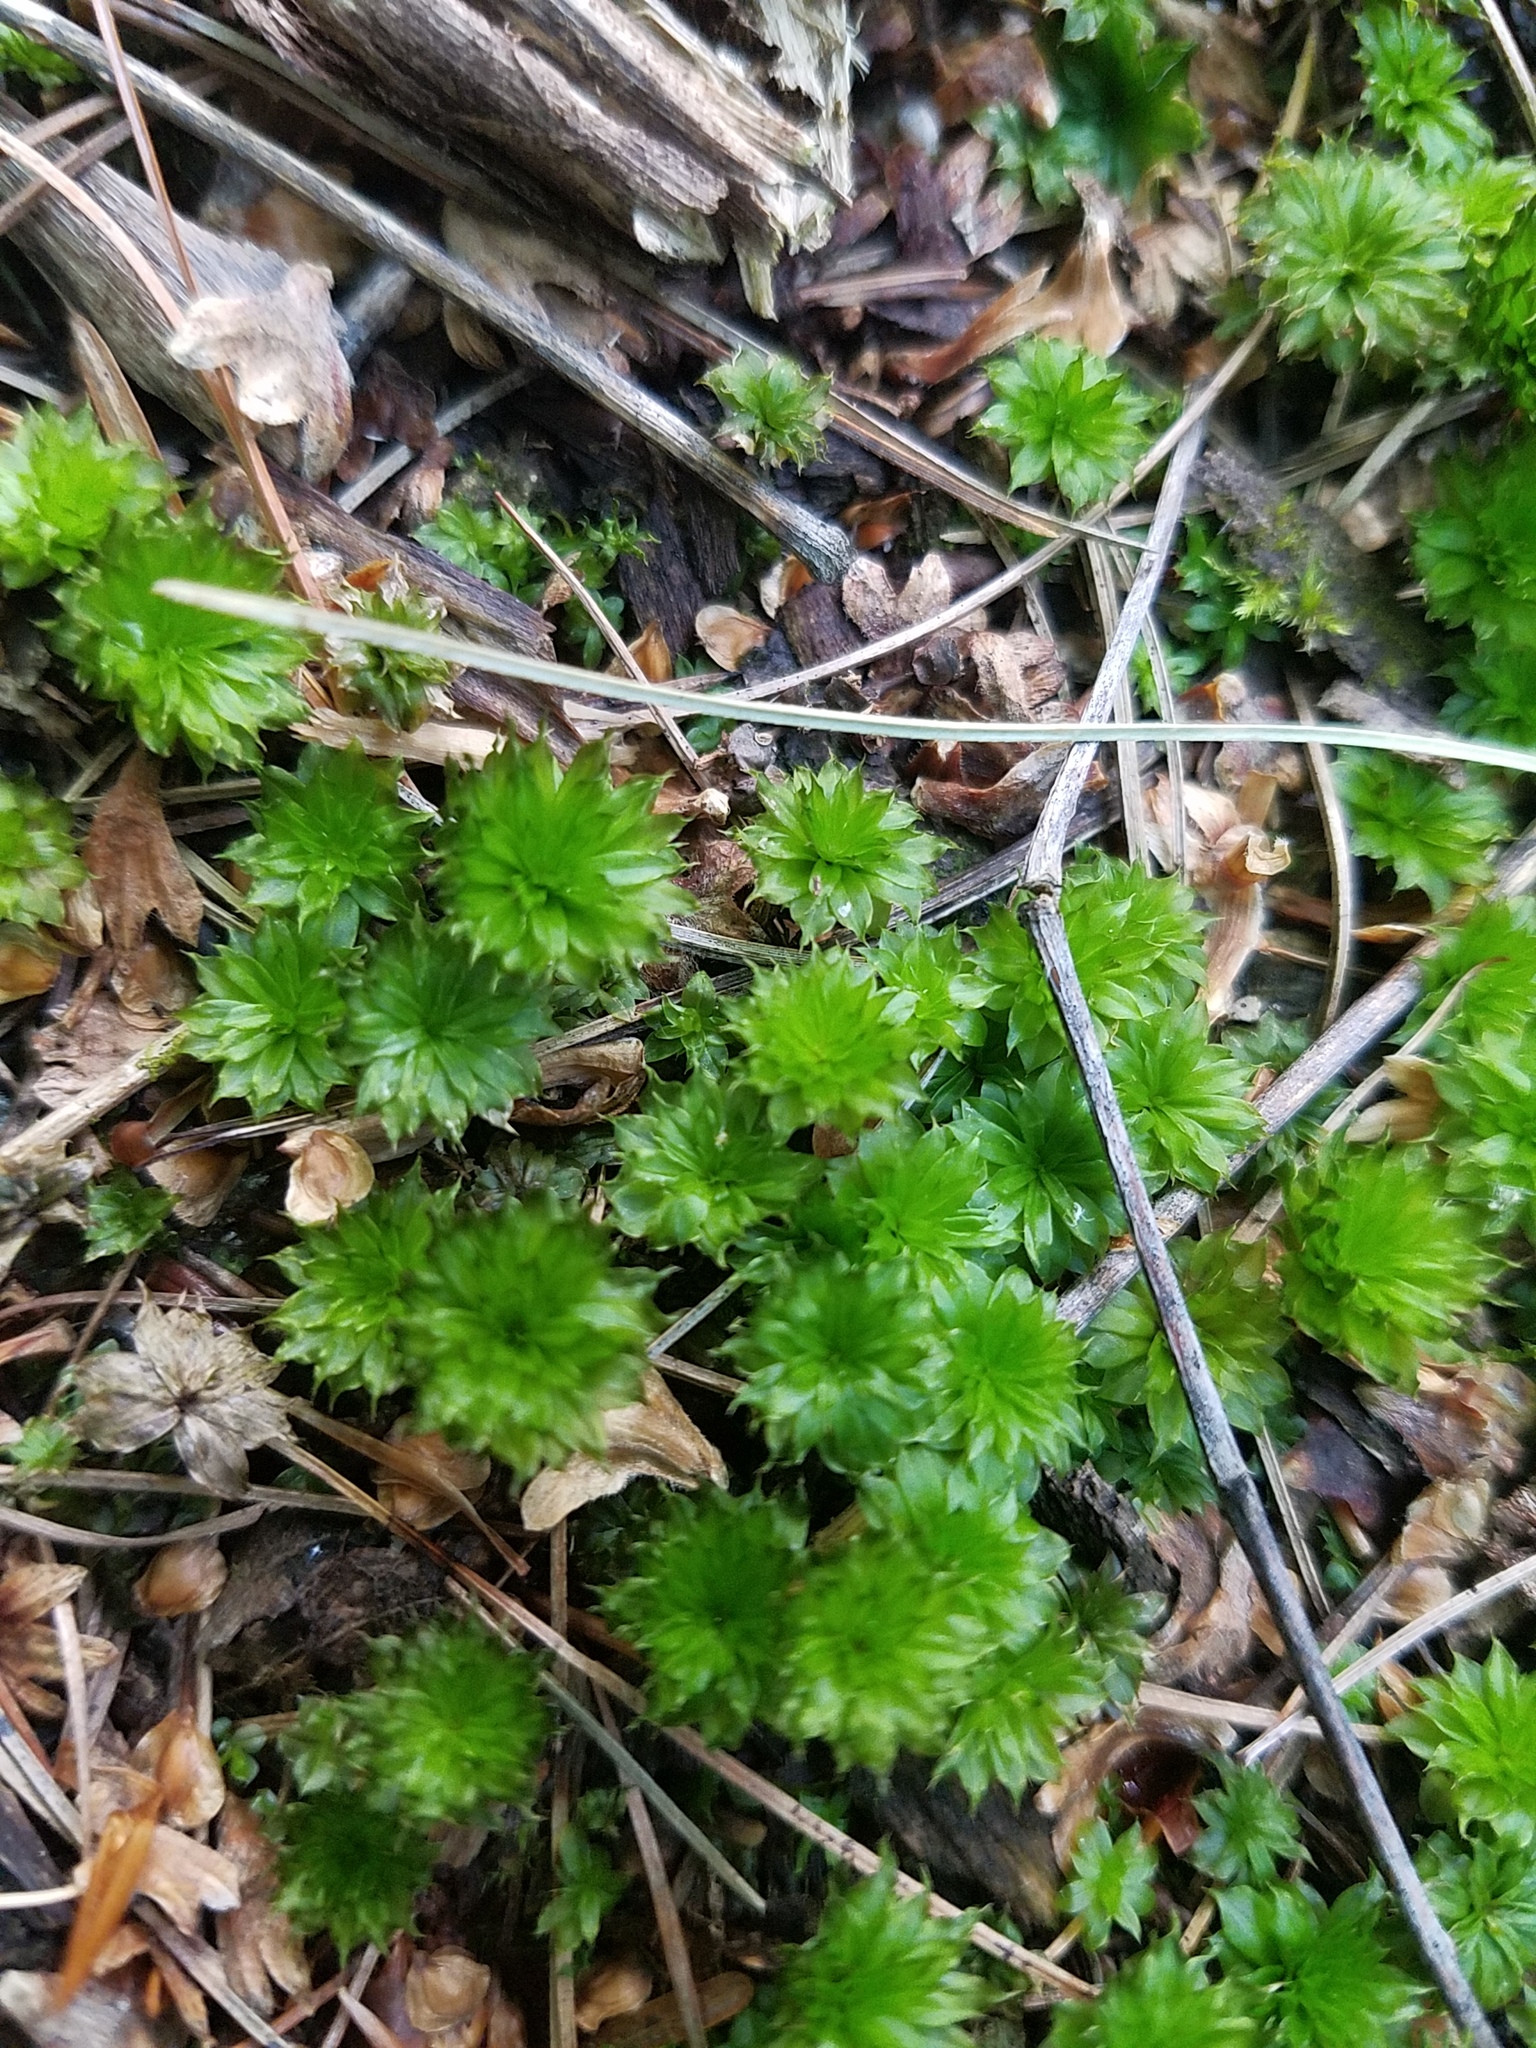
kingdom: Plantae
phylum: Bryophyta
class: Bryopsida
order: Bryales
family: Bryaceae
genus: Rhodobryum
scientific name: Rhodobryum ontariense
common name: Ontario rhodobryum moss
